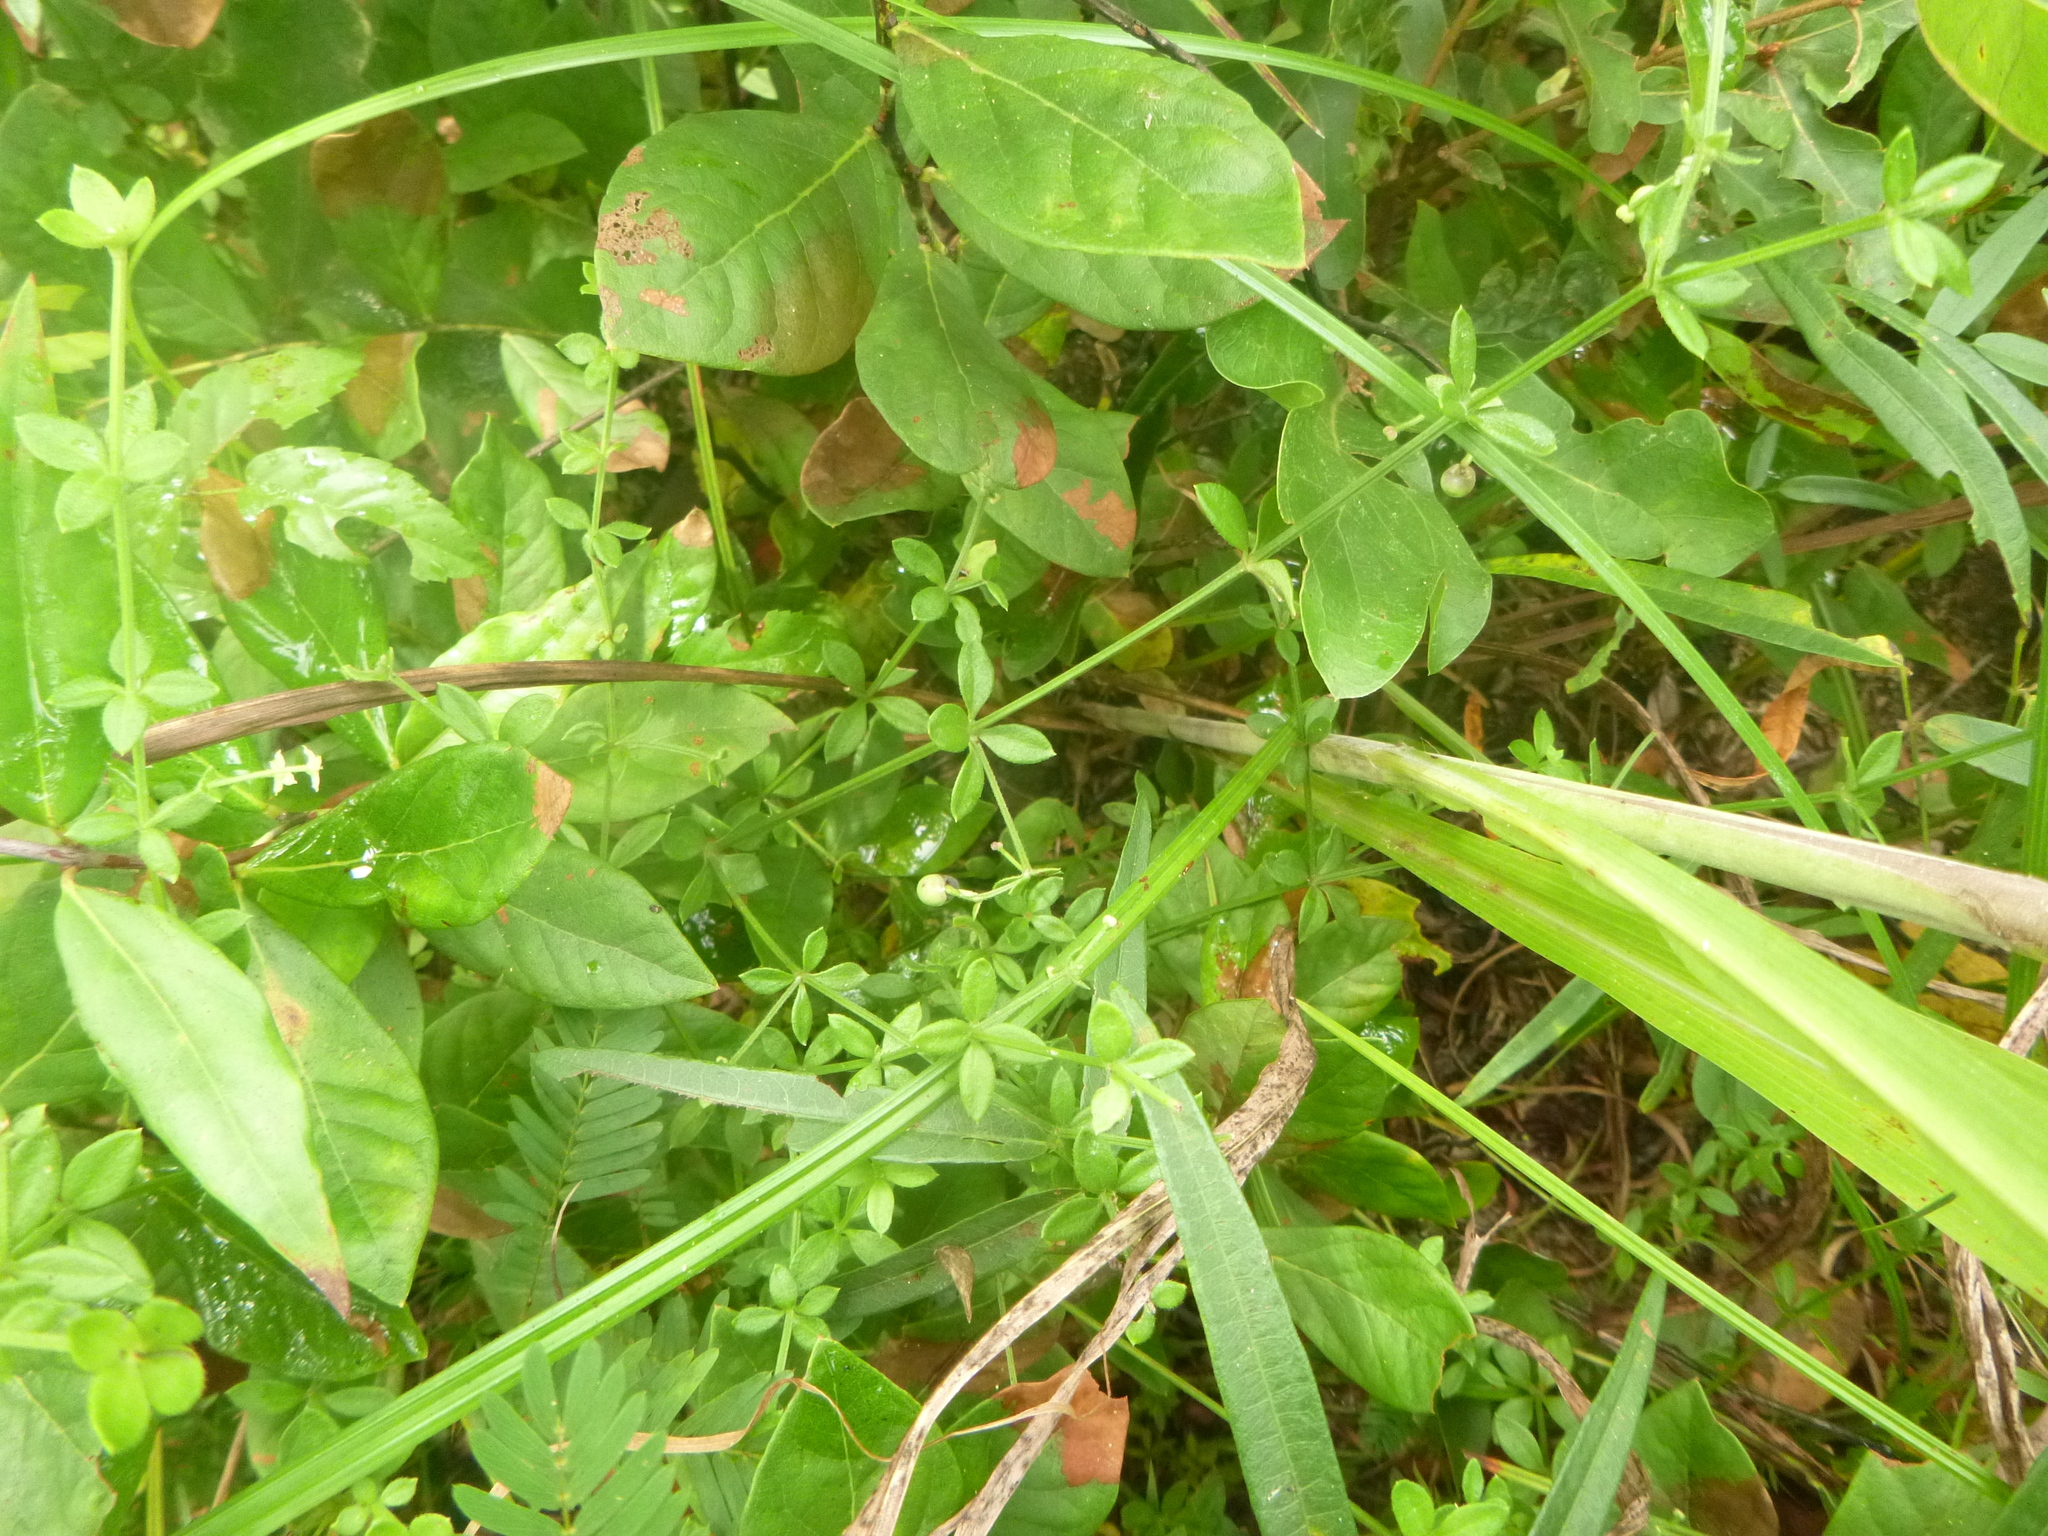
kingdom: Plantae
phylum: Tracheophyta
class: Magnoliopsida
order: Gentianales
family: Rubiaceae
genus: Galium
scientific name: Galium bermudense
